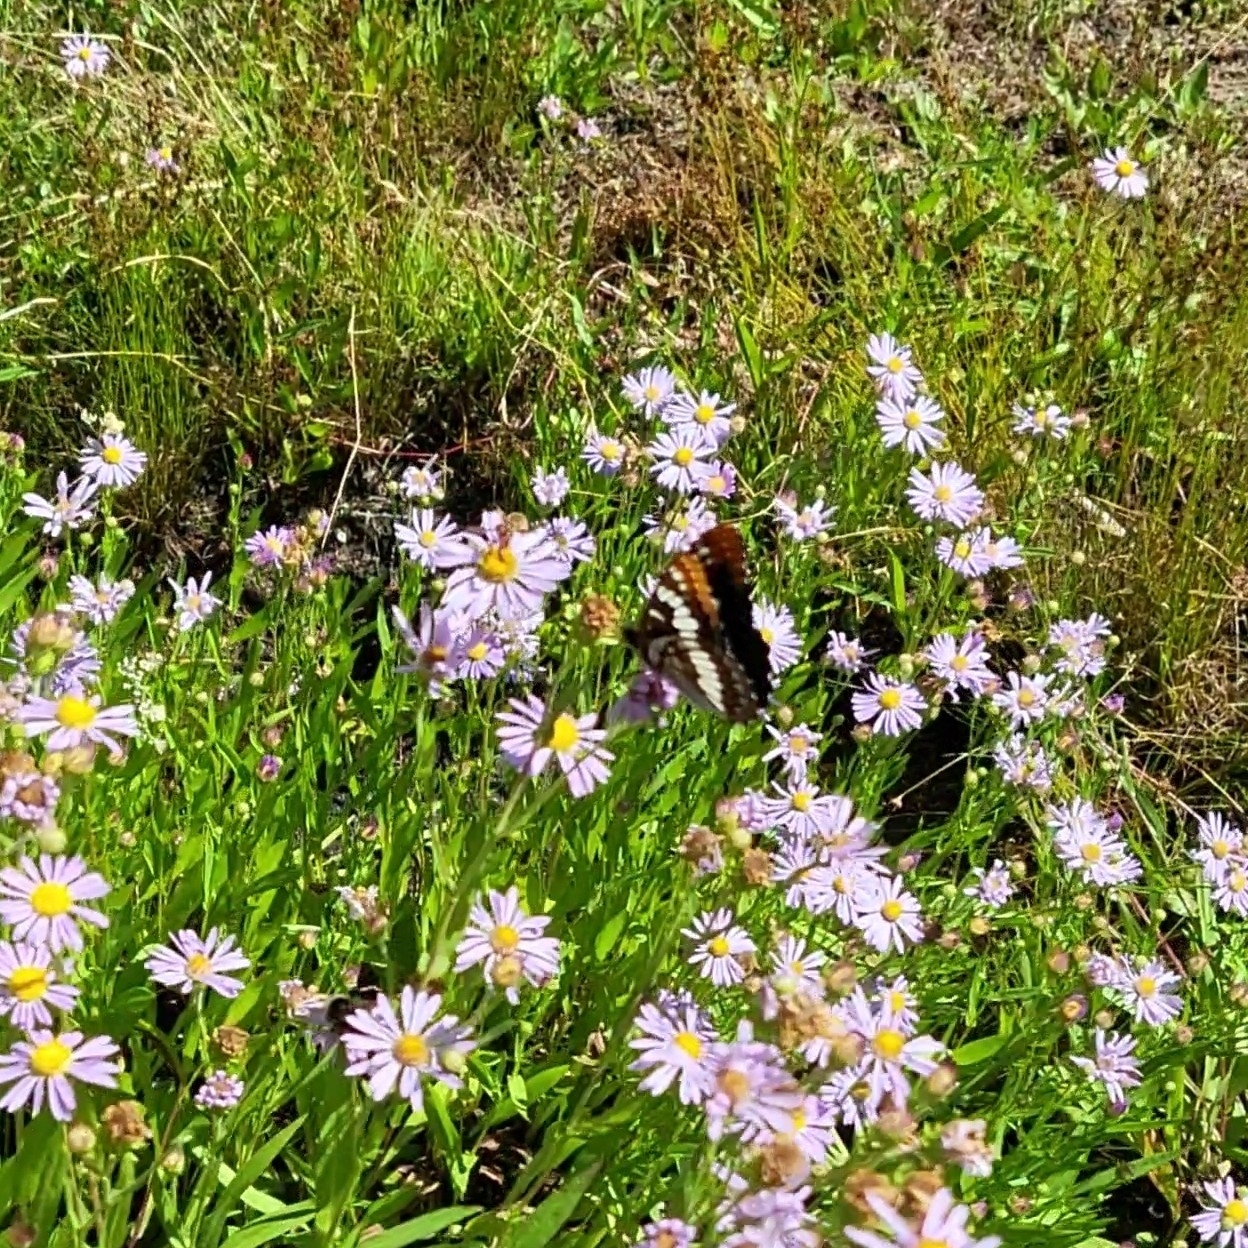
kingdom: Animalia
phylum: Arthropoda
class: Insecta
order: Lepidoptera
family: Nymphalidae
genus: Limenitis
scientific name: Limenitis lorquini
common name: Lorquin's admiral
